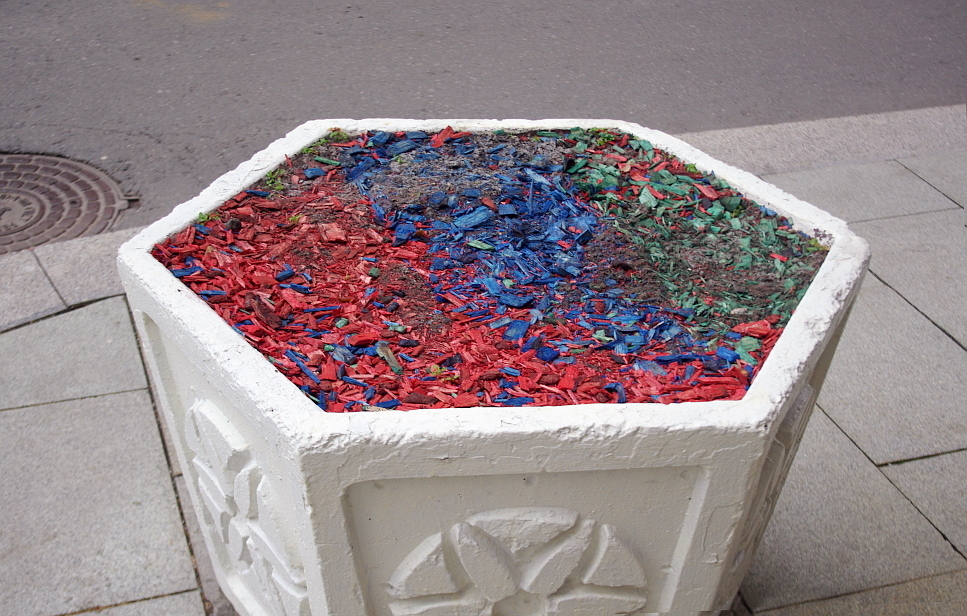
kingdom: Plantae
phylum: Tracheophyta
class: Magnoliopsida
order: Caryophyllales
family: Caryophyllaceae
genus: Stellaria
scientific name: Stellaria media
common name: Common chickweed
